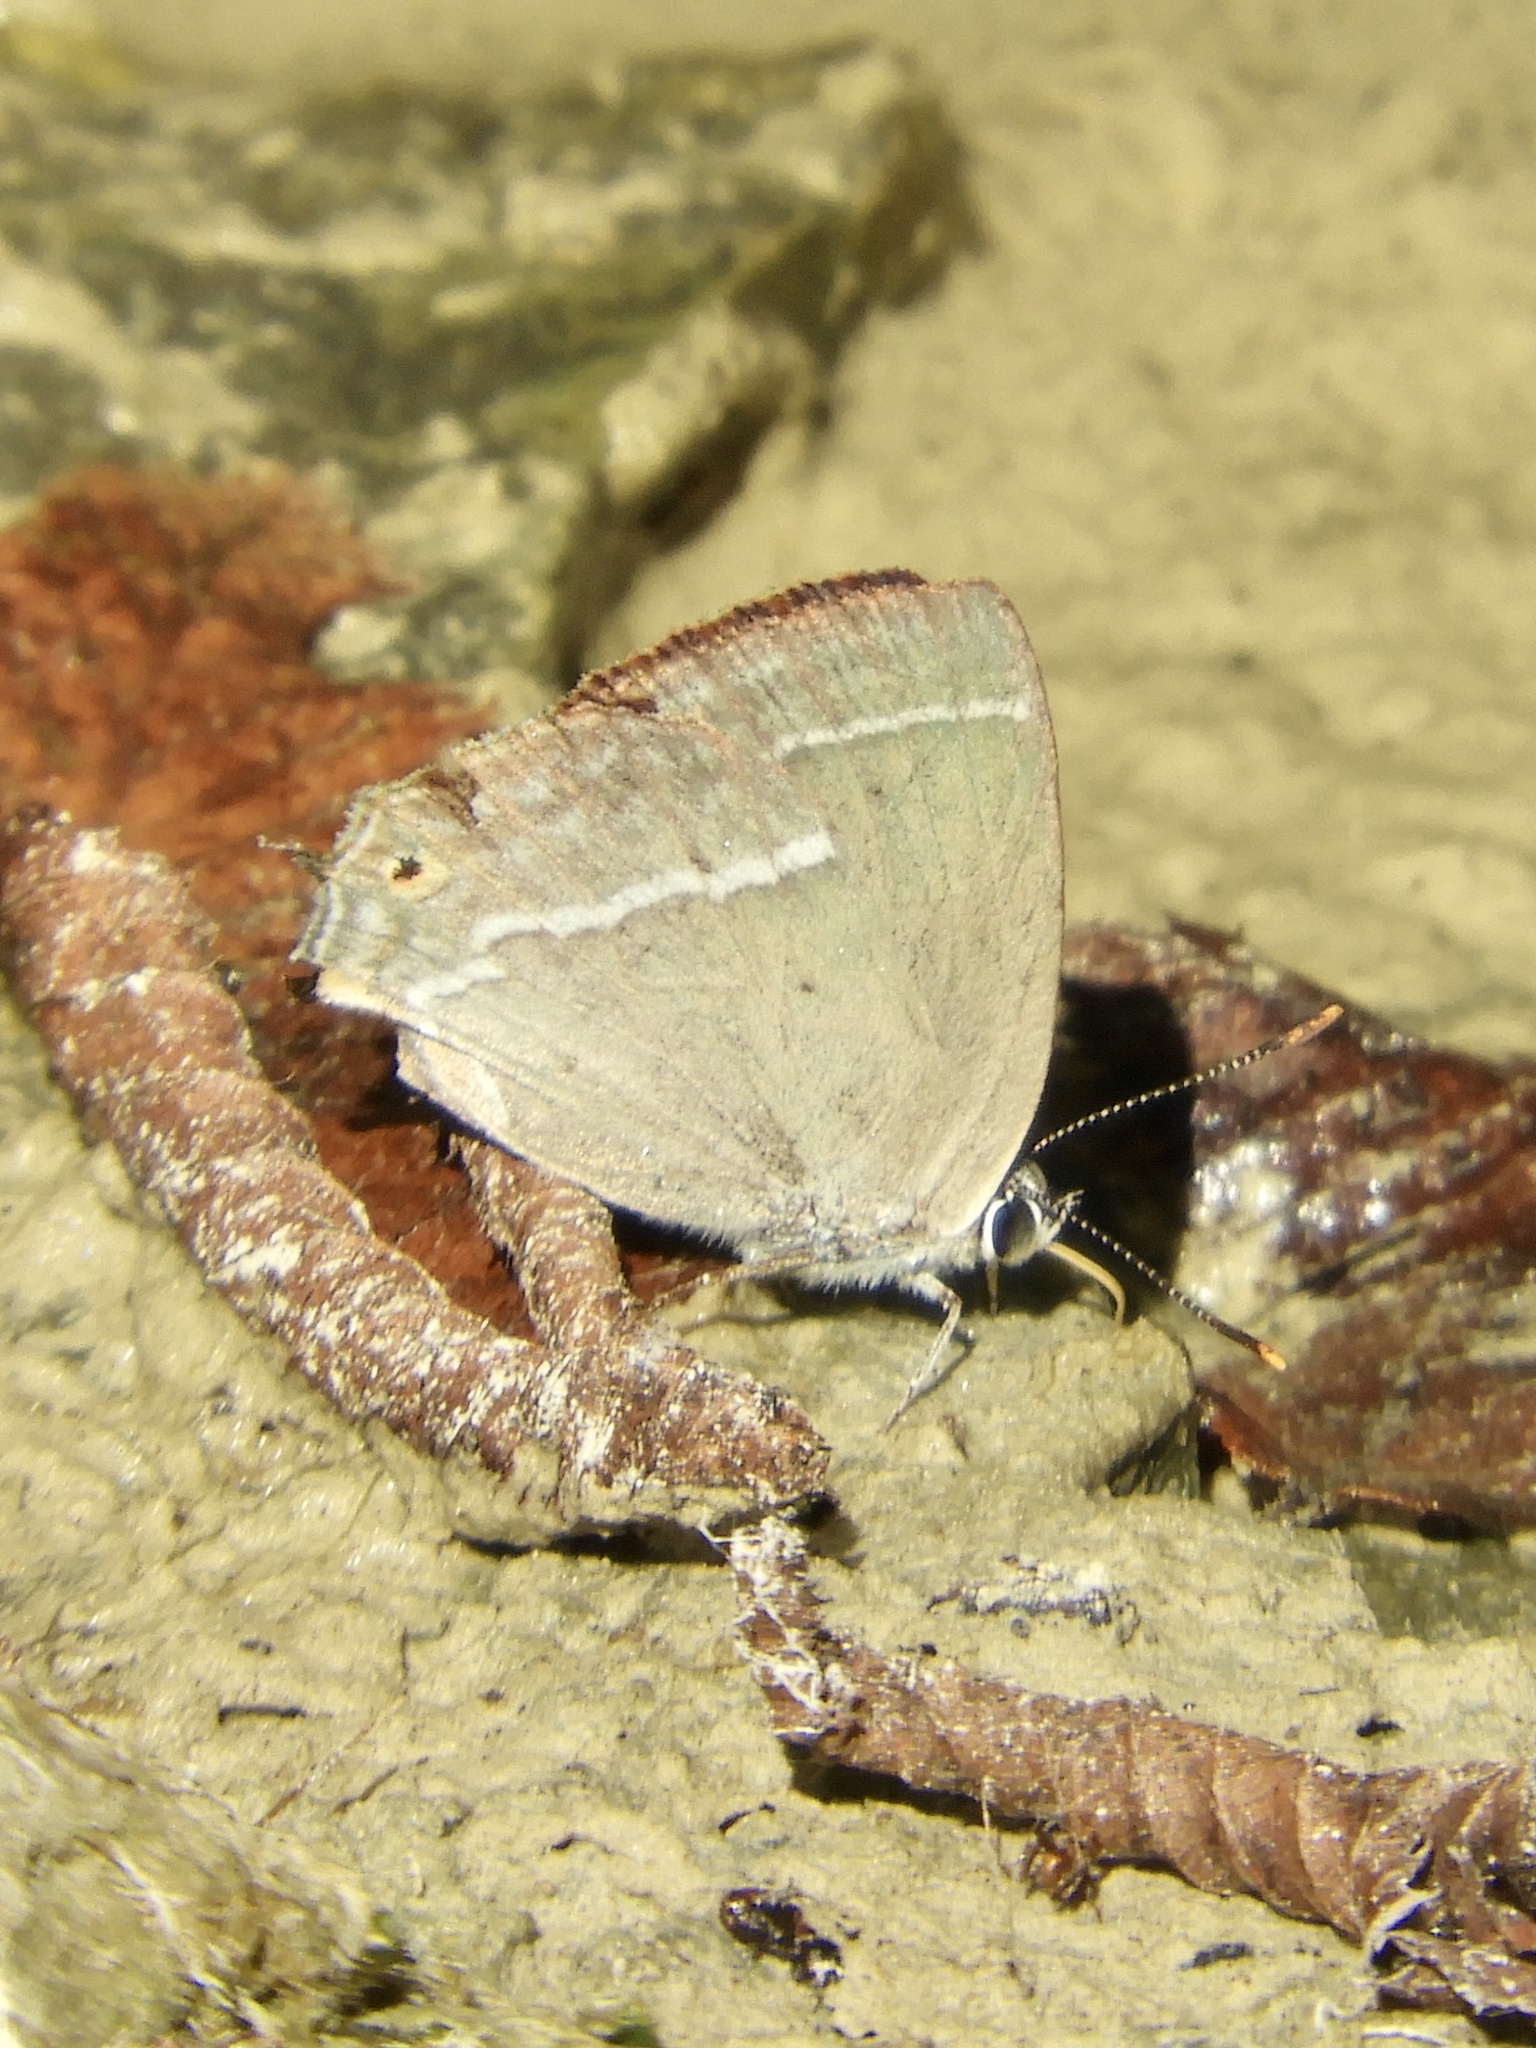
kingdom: Animalia
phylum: Arthropoda
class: Insecta
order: Lepidoptera
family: Lycaenidae
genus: Quercusia
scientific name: Quercusia quercus
